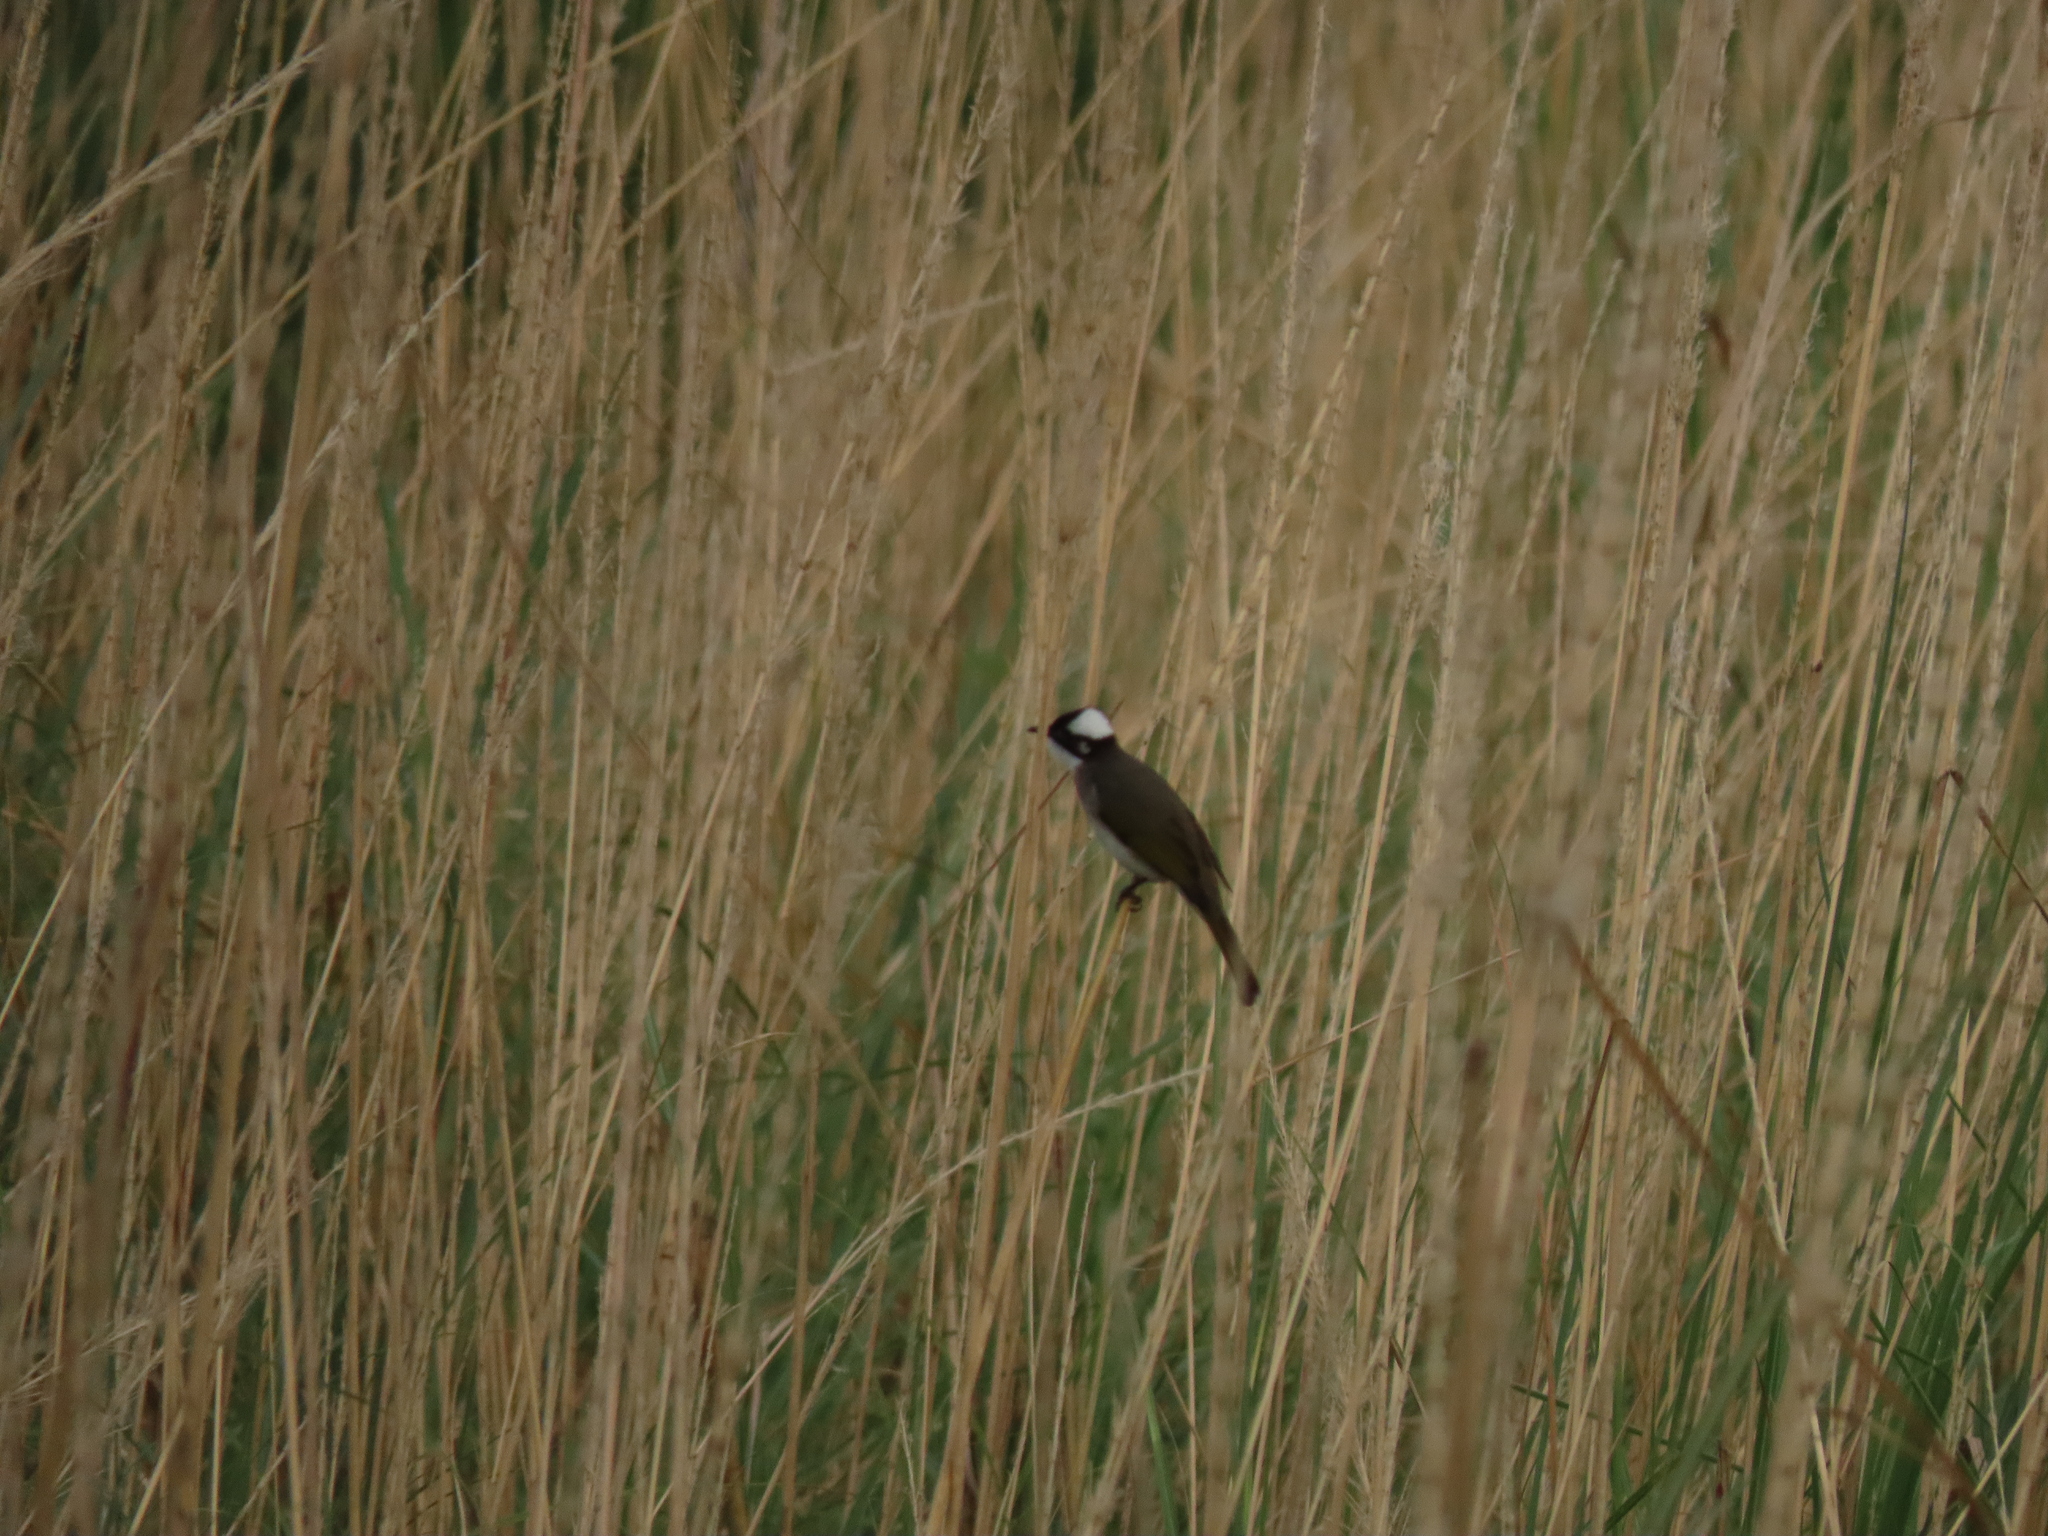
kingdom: Animalia
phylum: Chordata
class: Aves
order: Passeriformes
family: Pycnonotidae
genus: Pycnonotus
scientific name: Pycnonotus sinensis
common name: Light-vented bulbul
